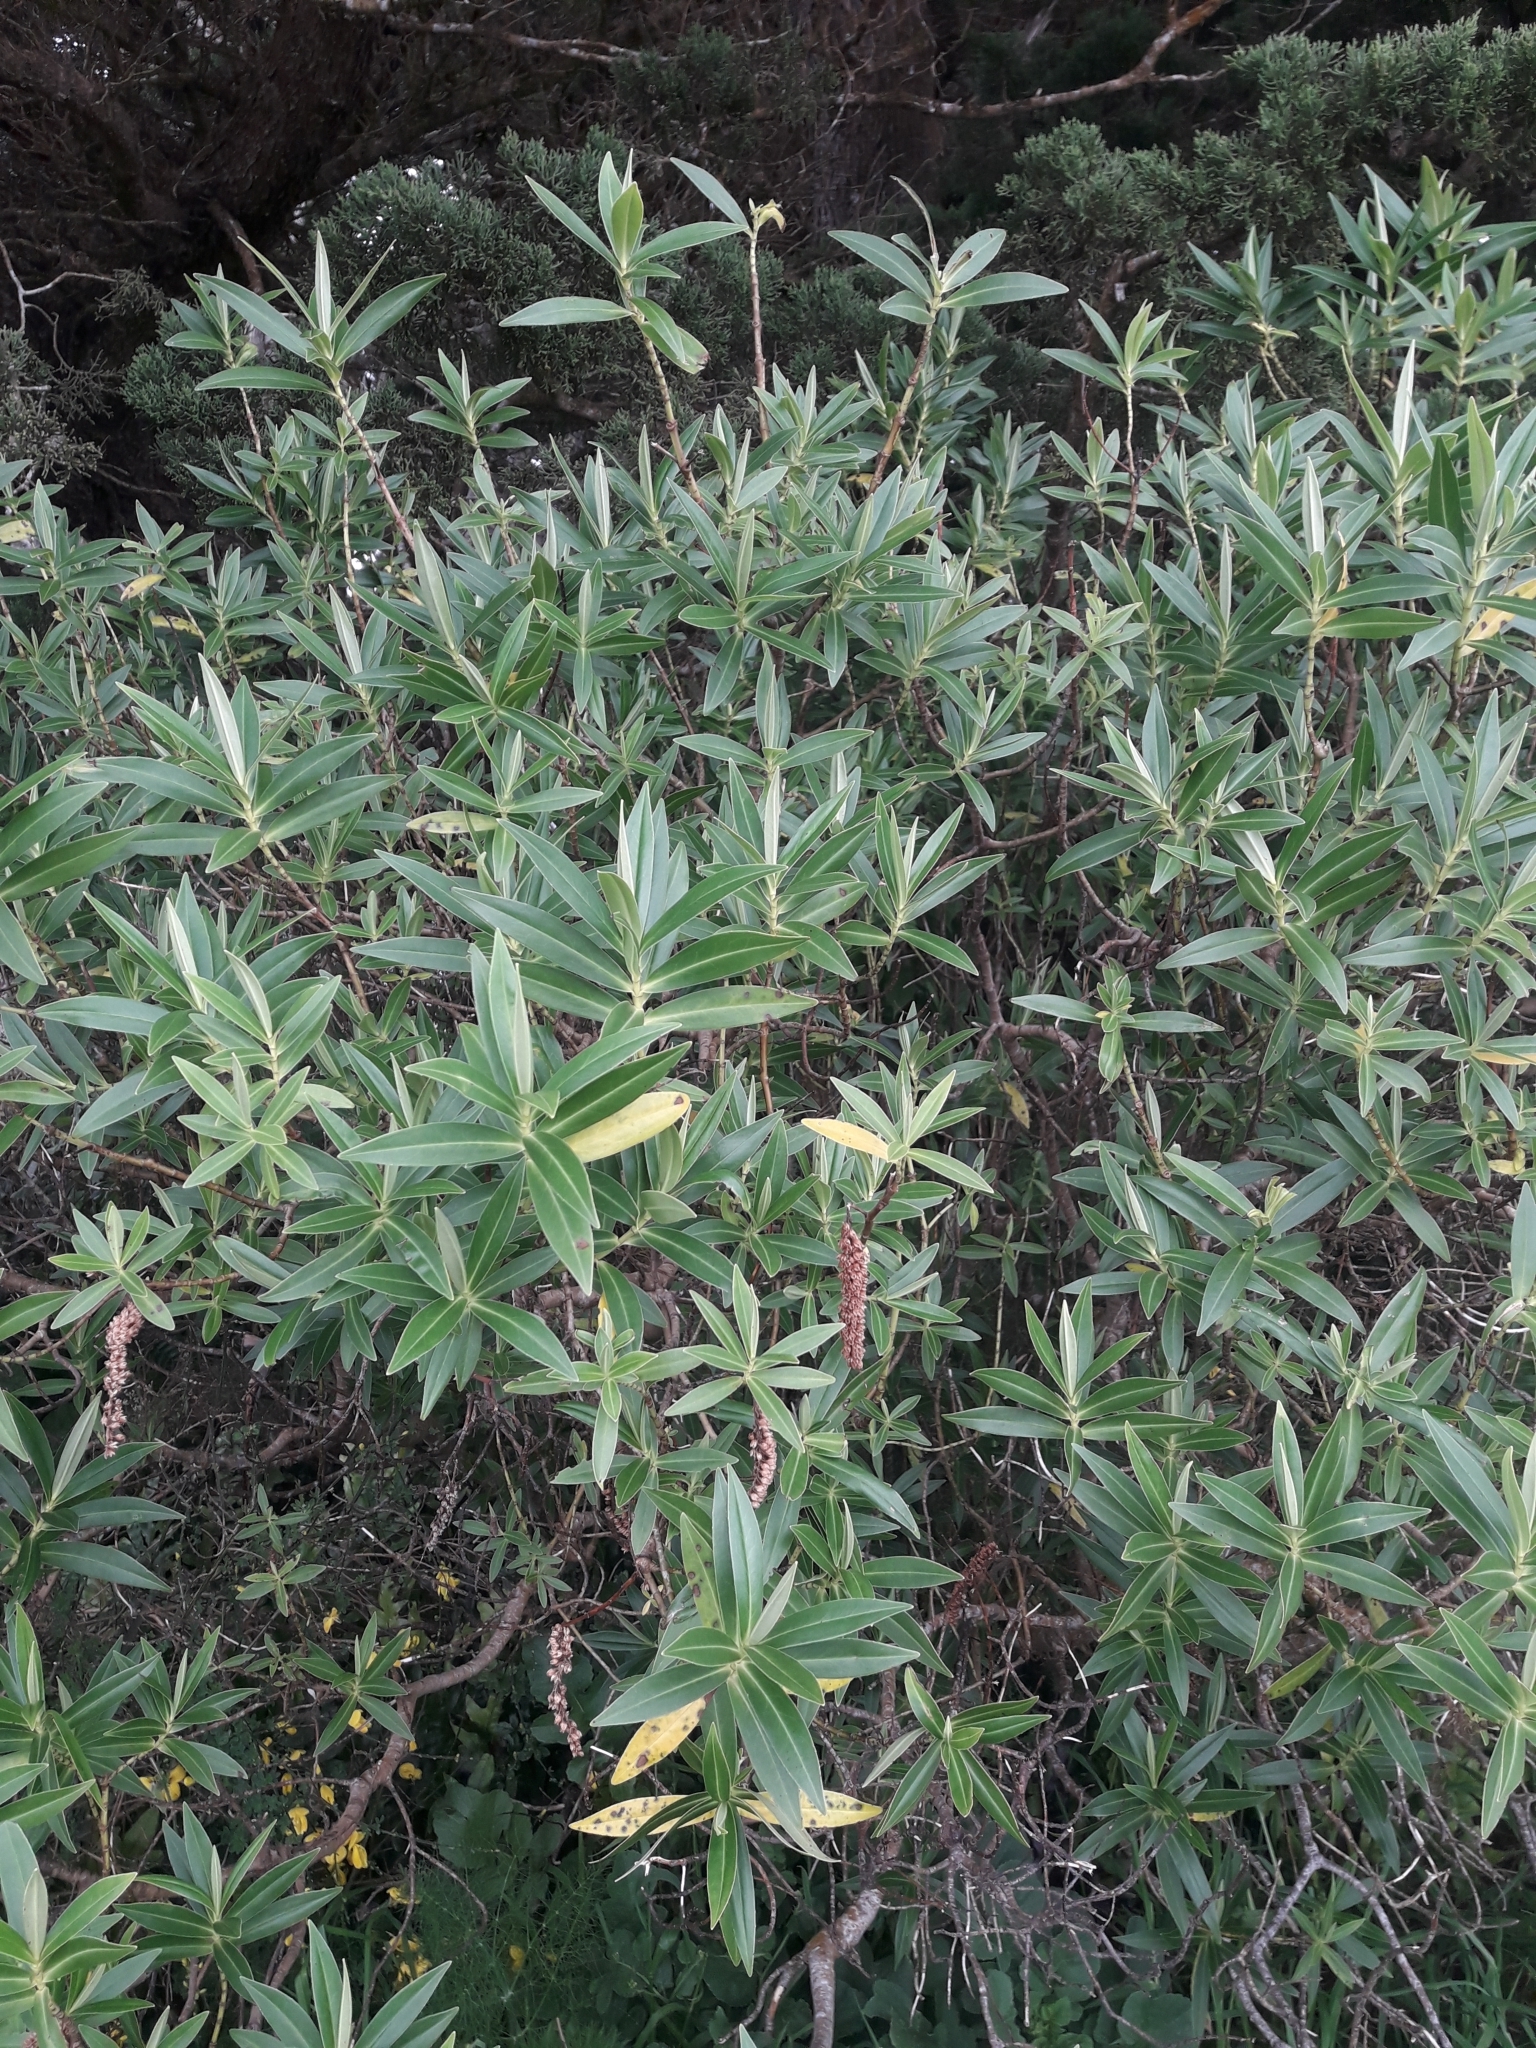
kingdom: Plantae
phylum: Tracheophyta
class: Magnoliopsida
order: Lamiales
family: Plantaginaceae
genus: Veronica
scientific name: Veronica stricta
